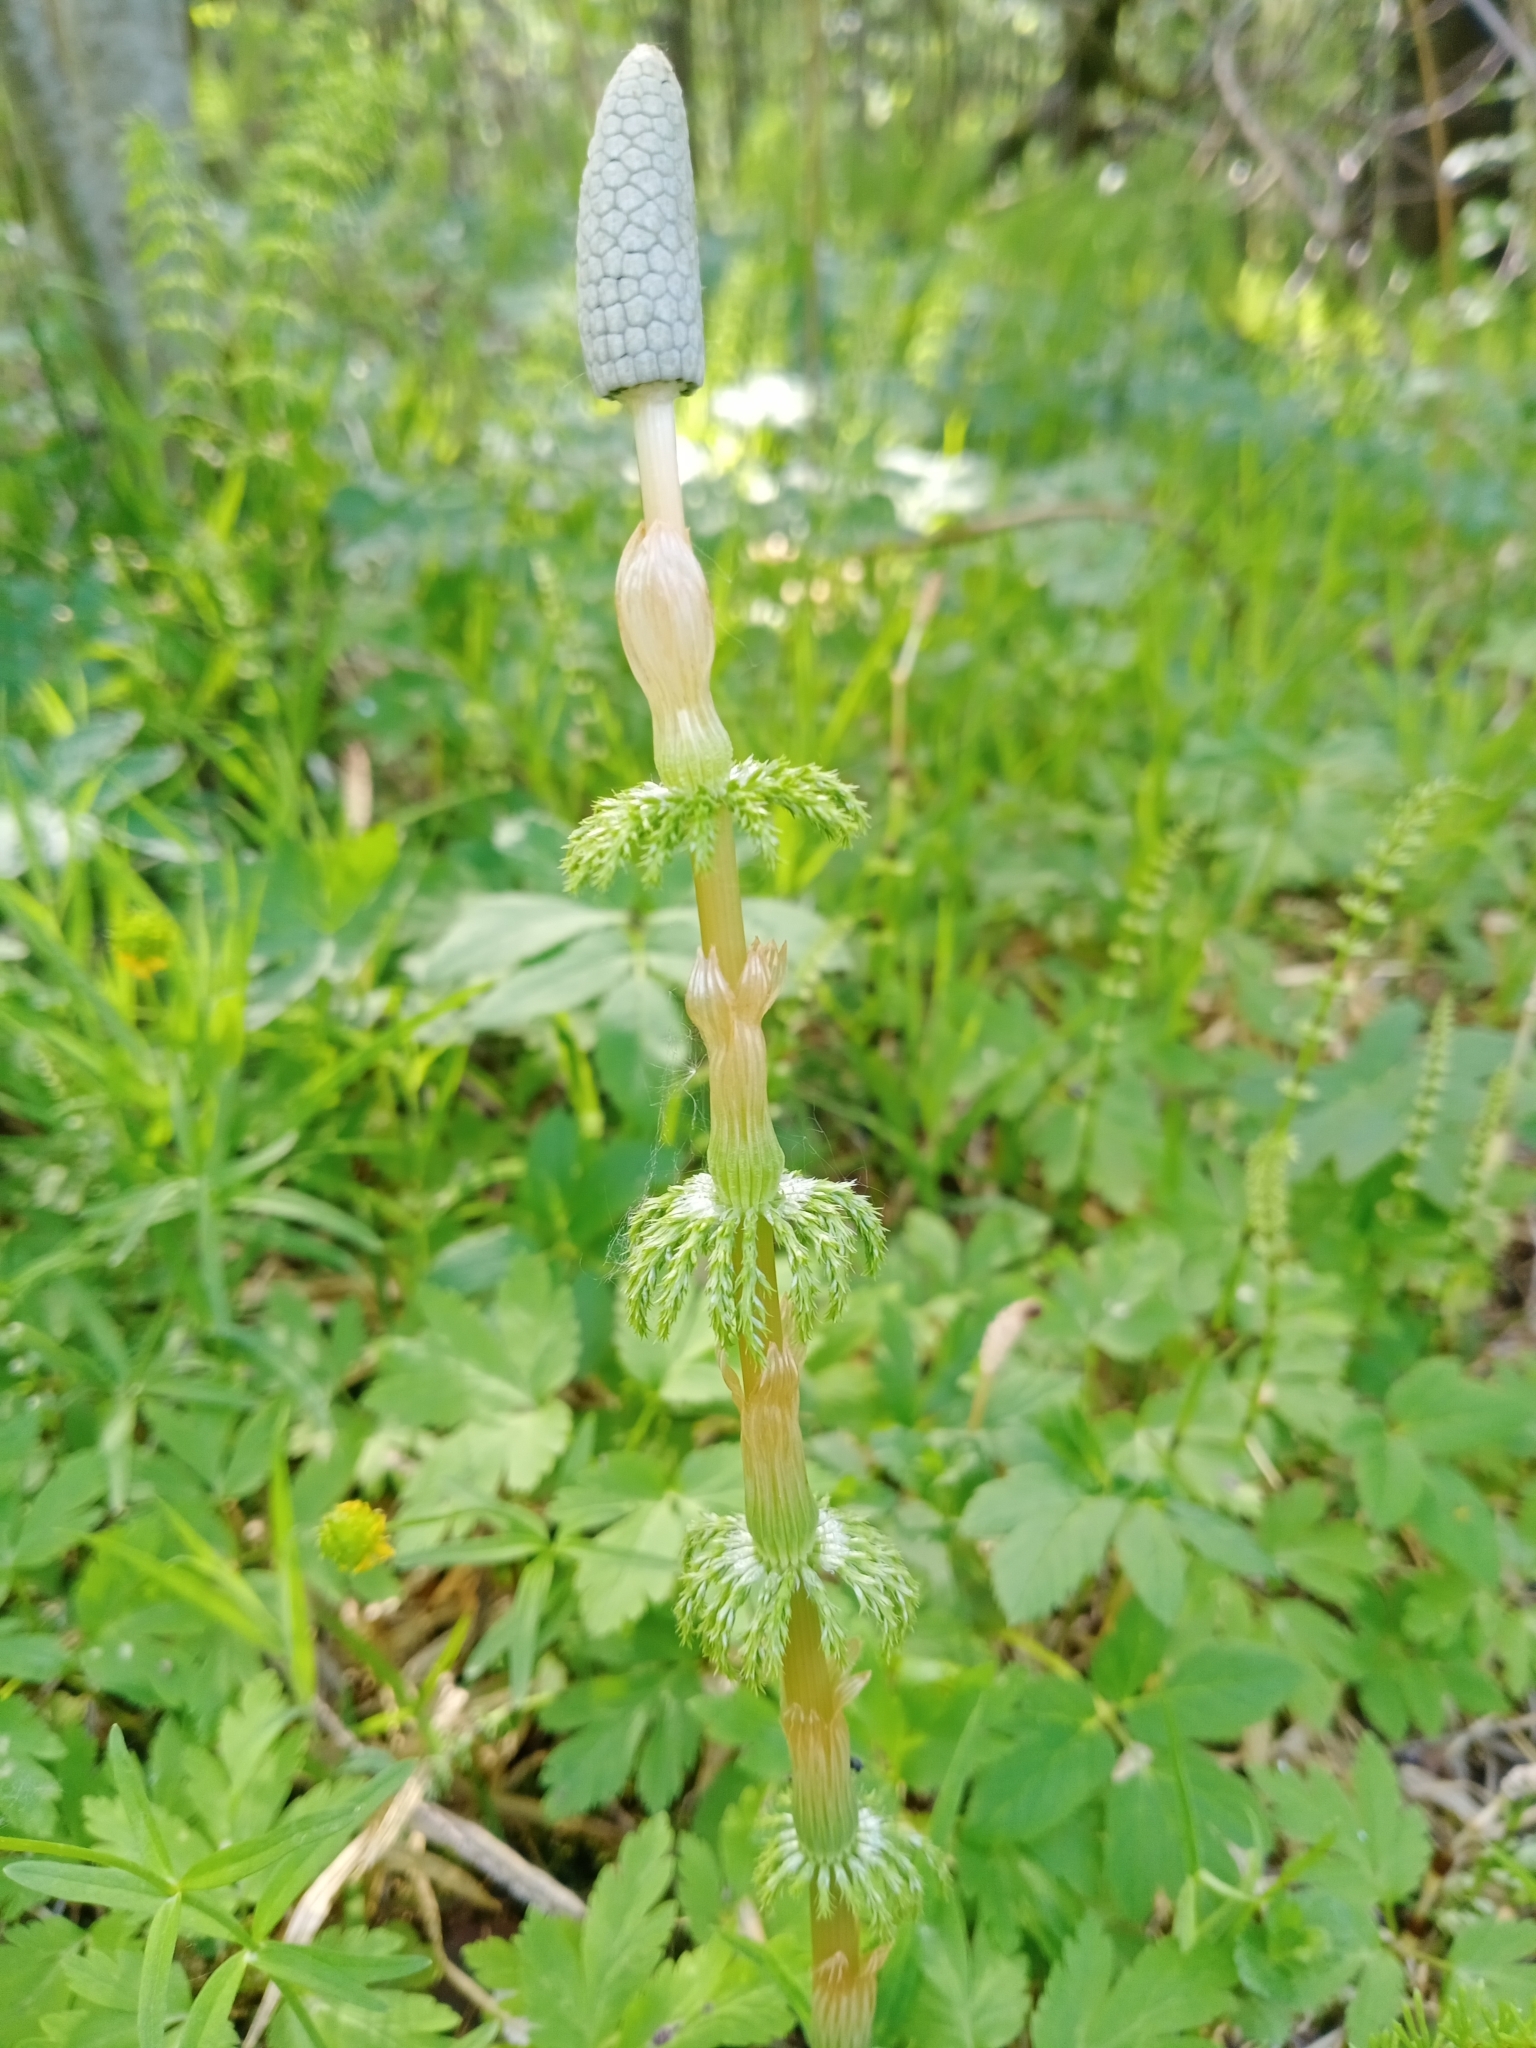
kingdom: Plantae
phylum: Tracheophyta
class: Polypodiopsida
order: Equisetales
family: Equisetaceae
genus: Equisetum
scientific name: Equisetum sylvaticum
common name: Wood horsetail
